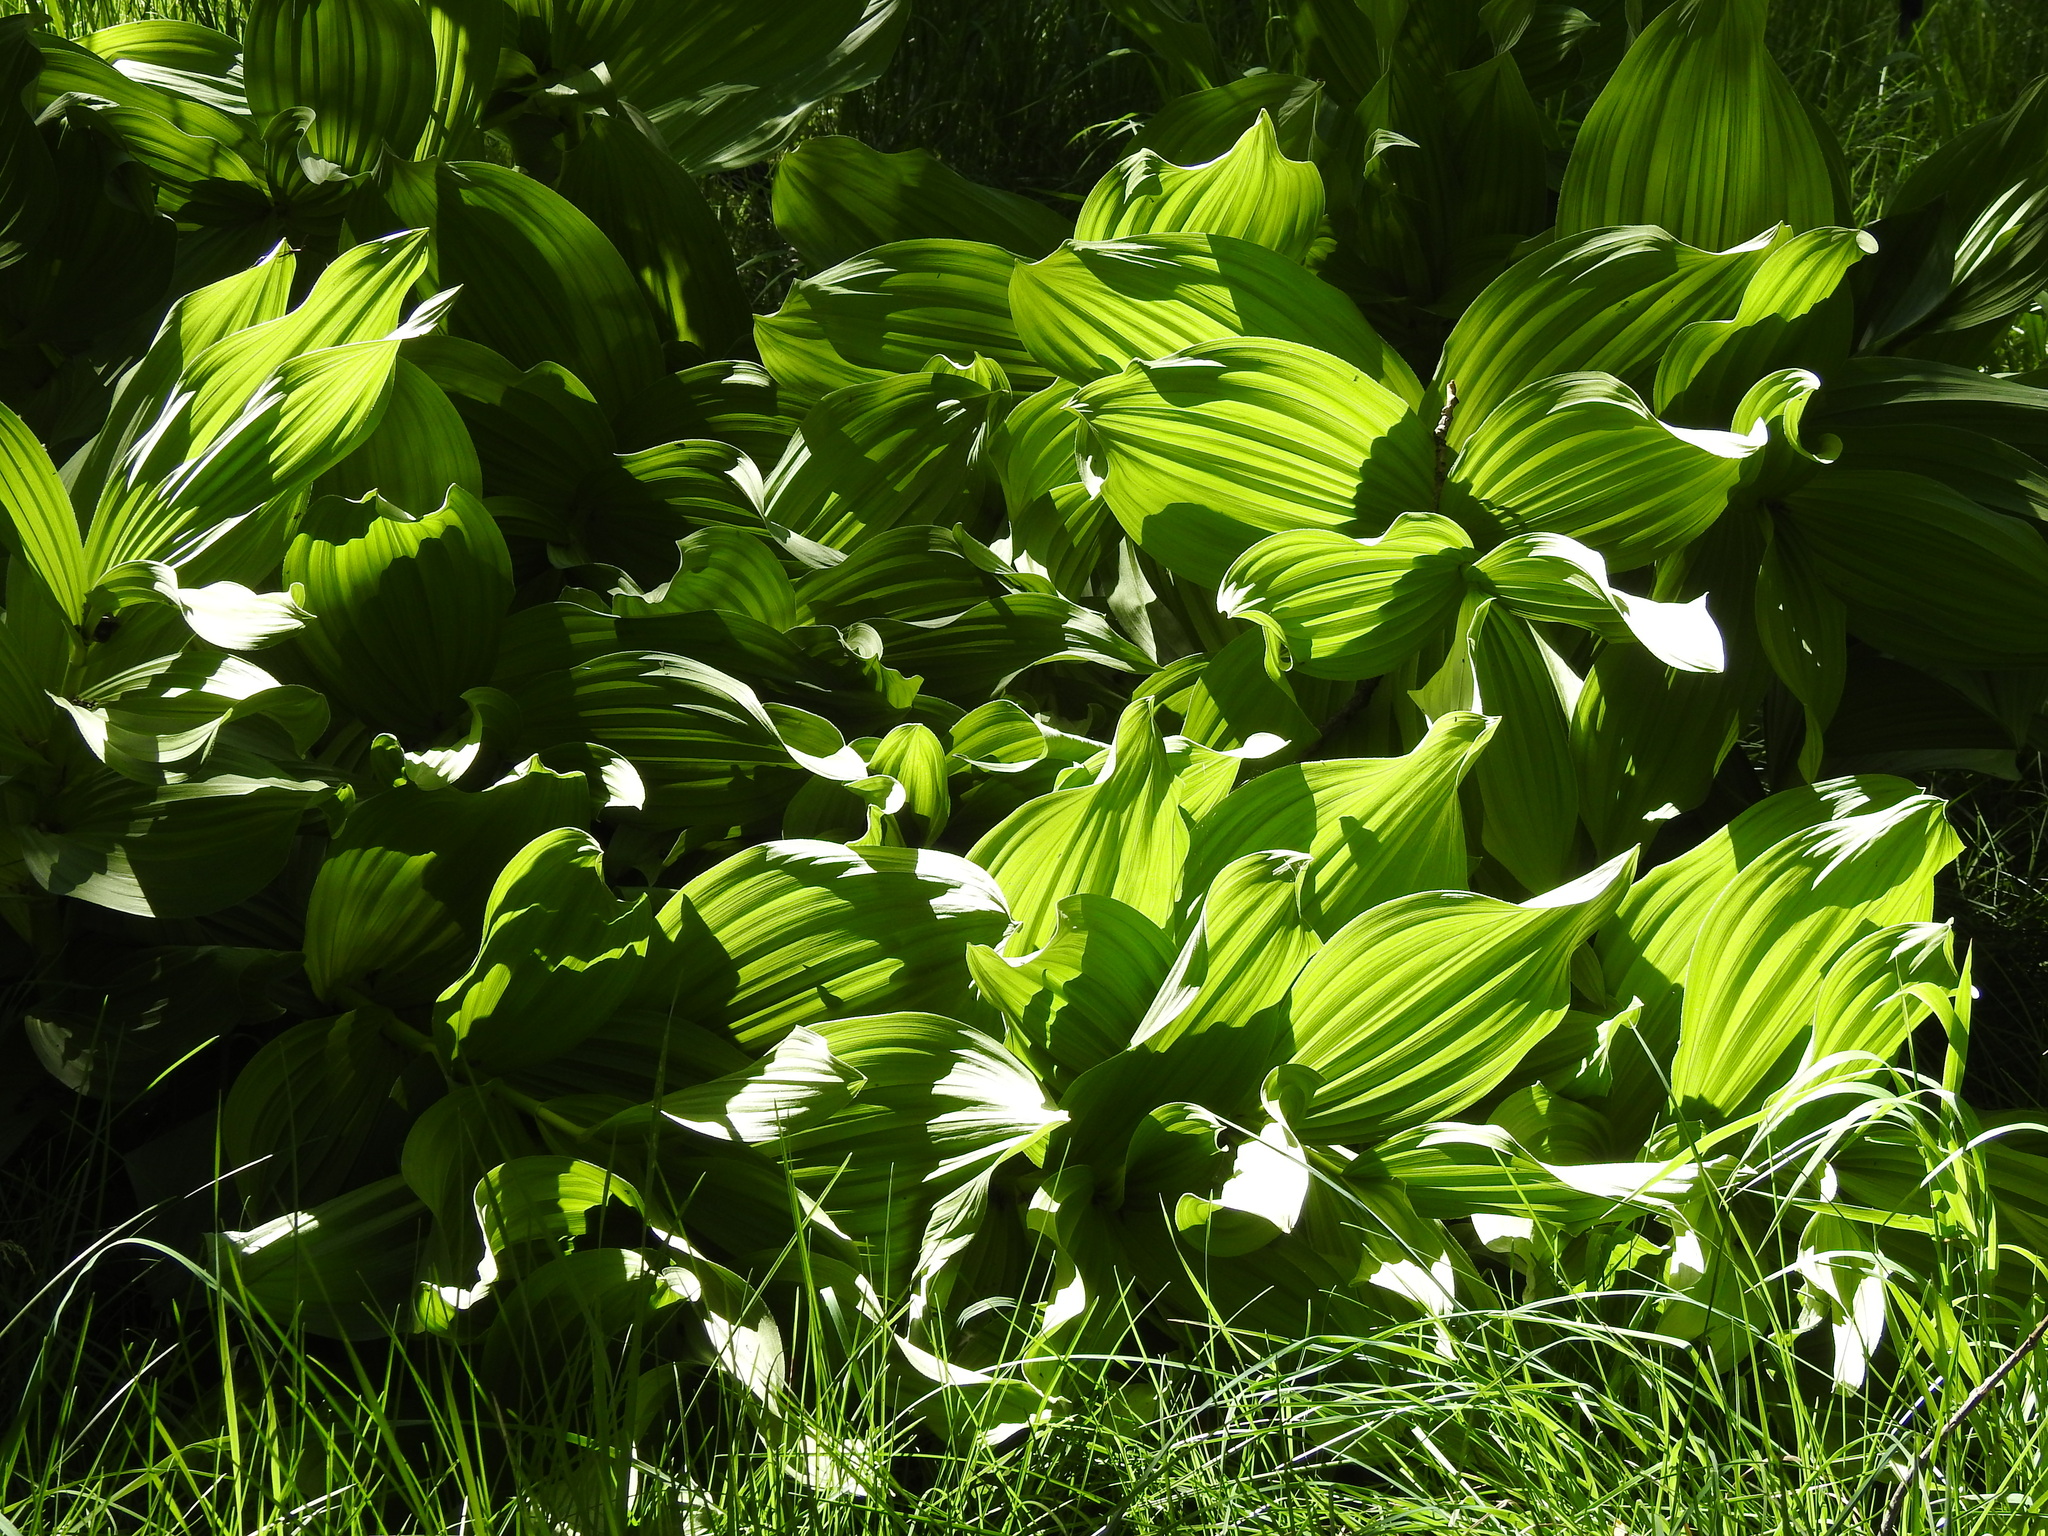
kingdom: Plantae
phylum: Tracheophyta
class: Liliopsida
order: Liliales
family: Melanthiaceae
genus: Veratrum
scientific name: Veratrum californicum
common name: California veratrum
